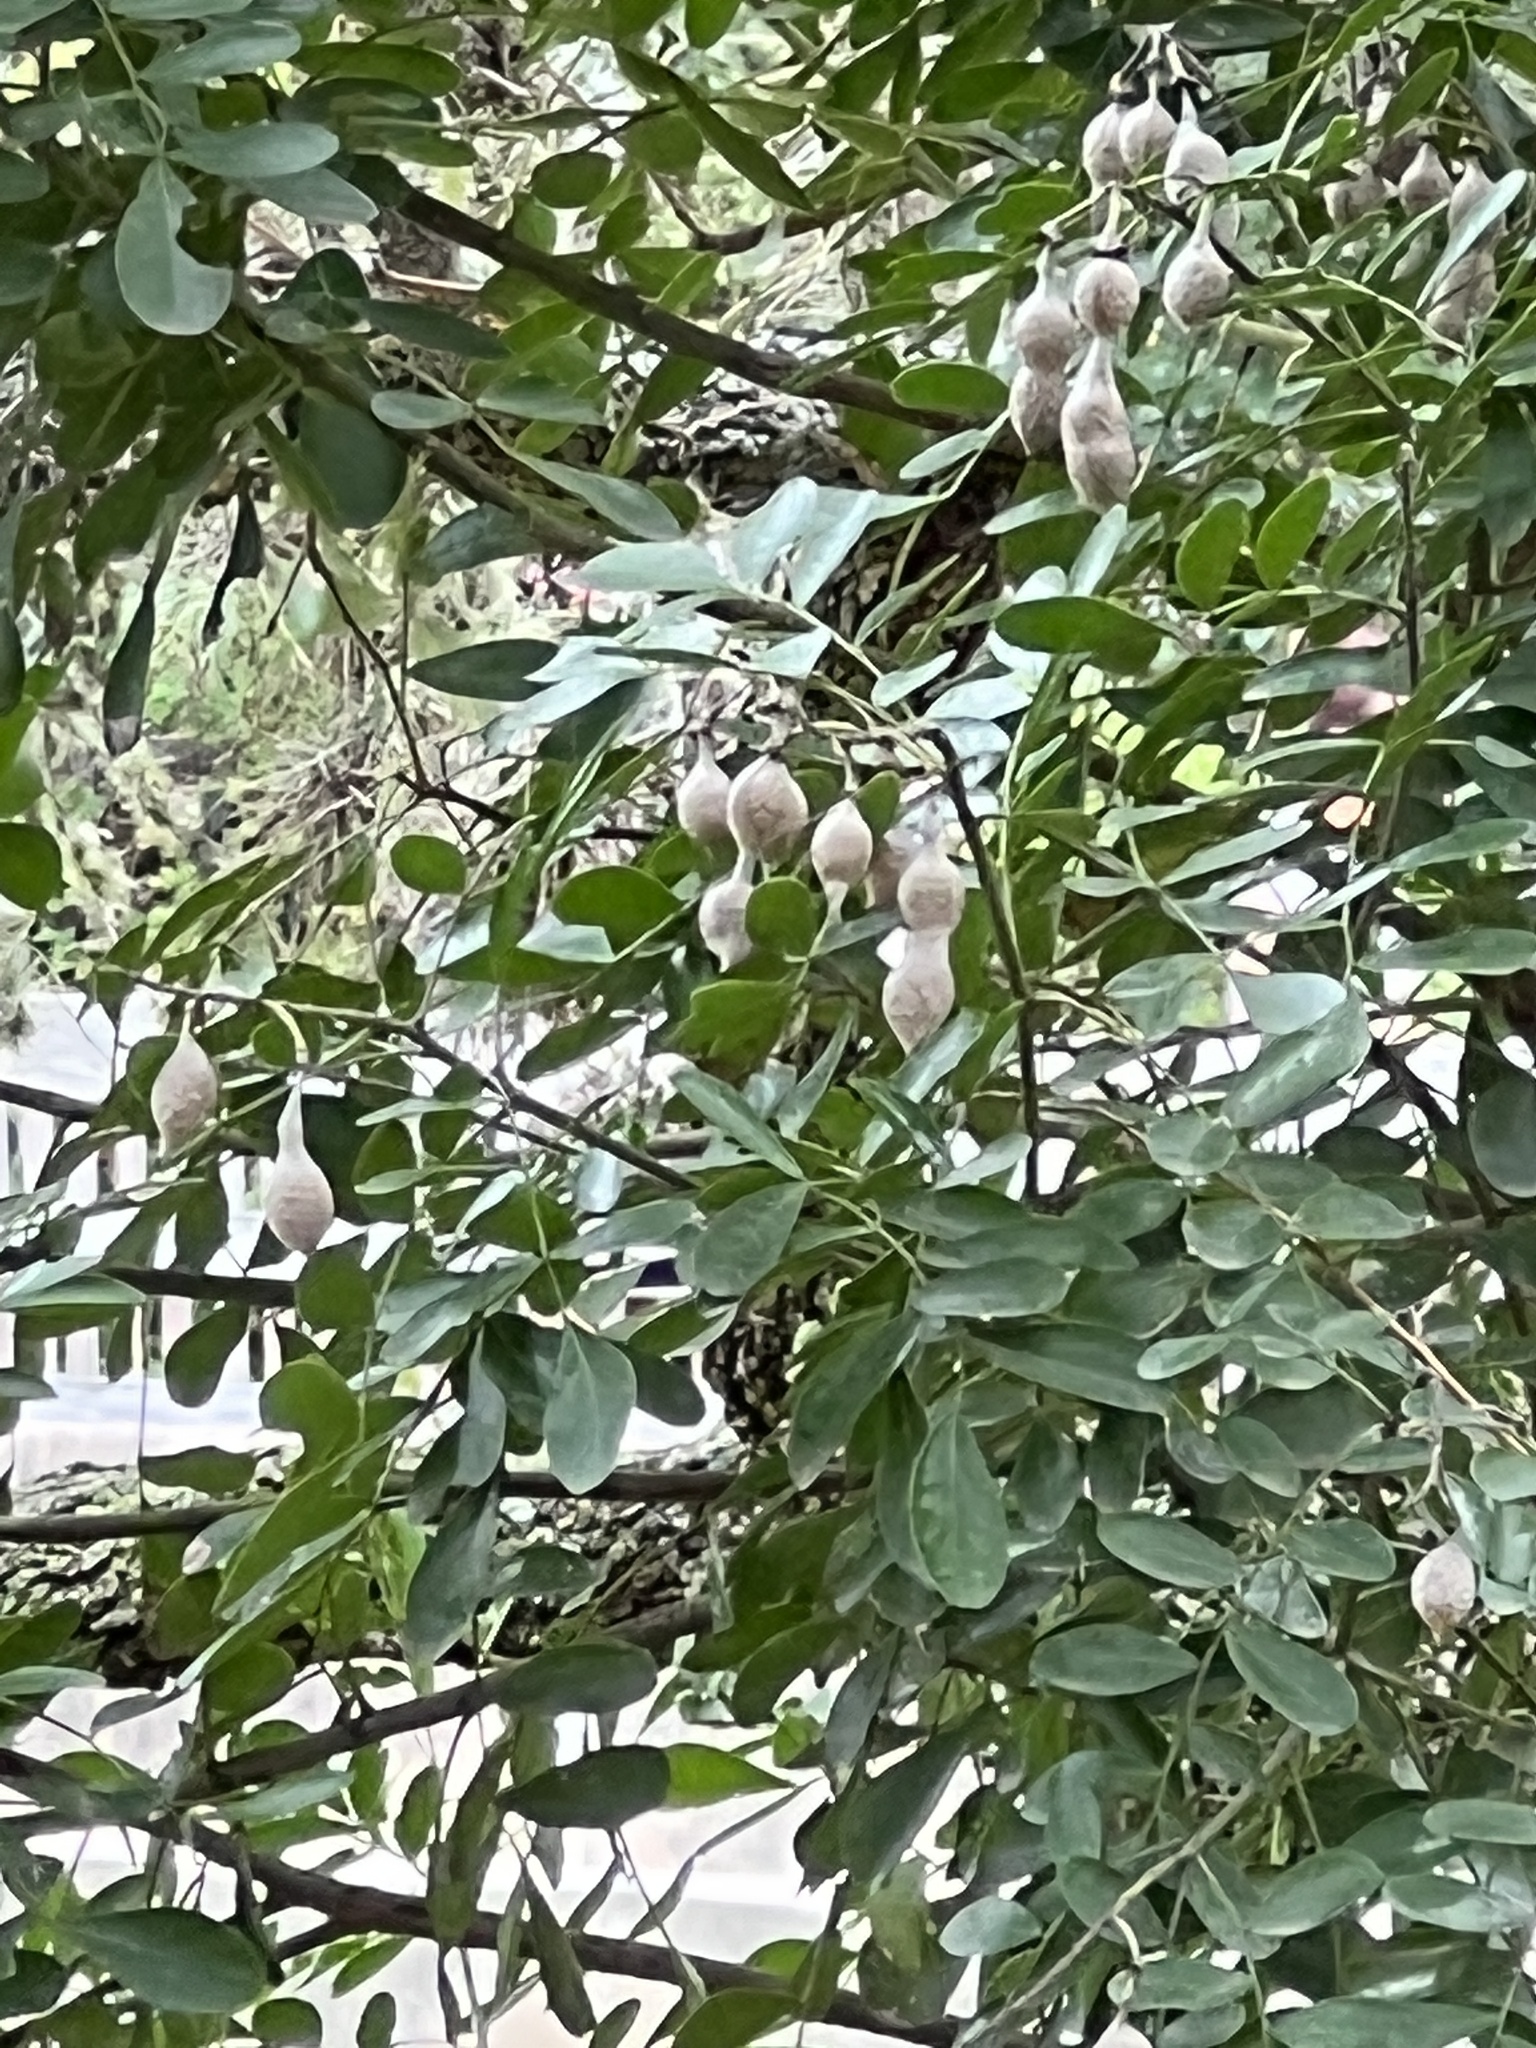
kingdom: Plantae
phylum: Tracheophyta
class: Magnoliopsida
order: Fabales
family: Fabaceae
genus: Dermatophyllum
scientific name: Dermatophyllum secundiflorum
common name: Texas-mountain-laurel
